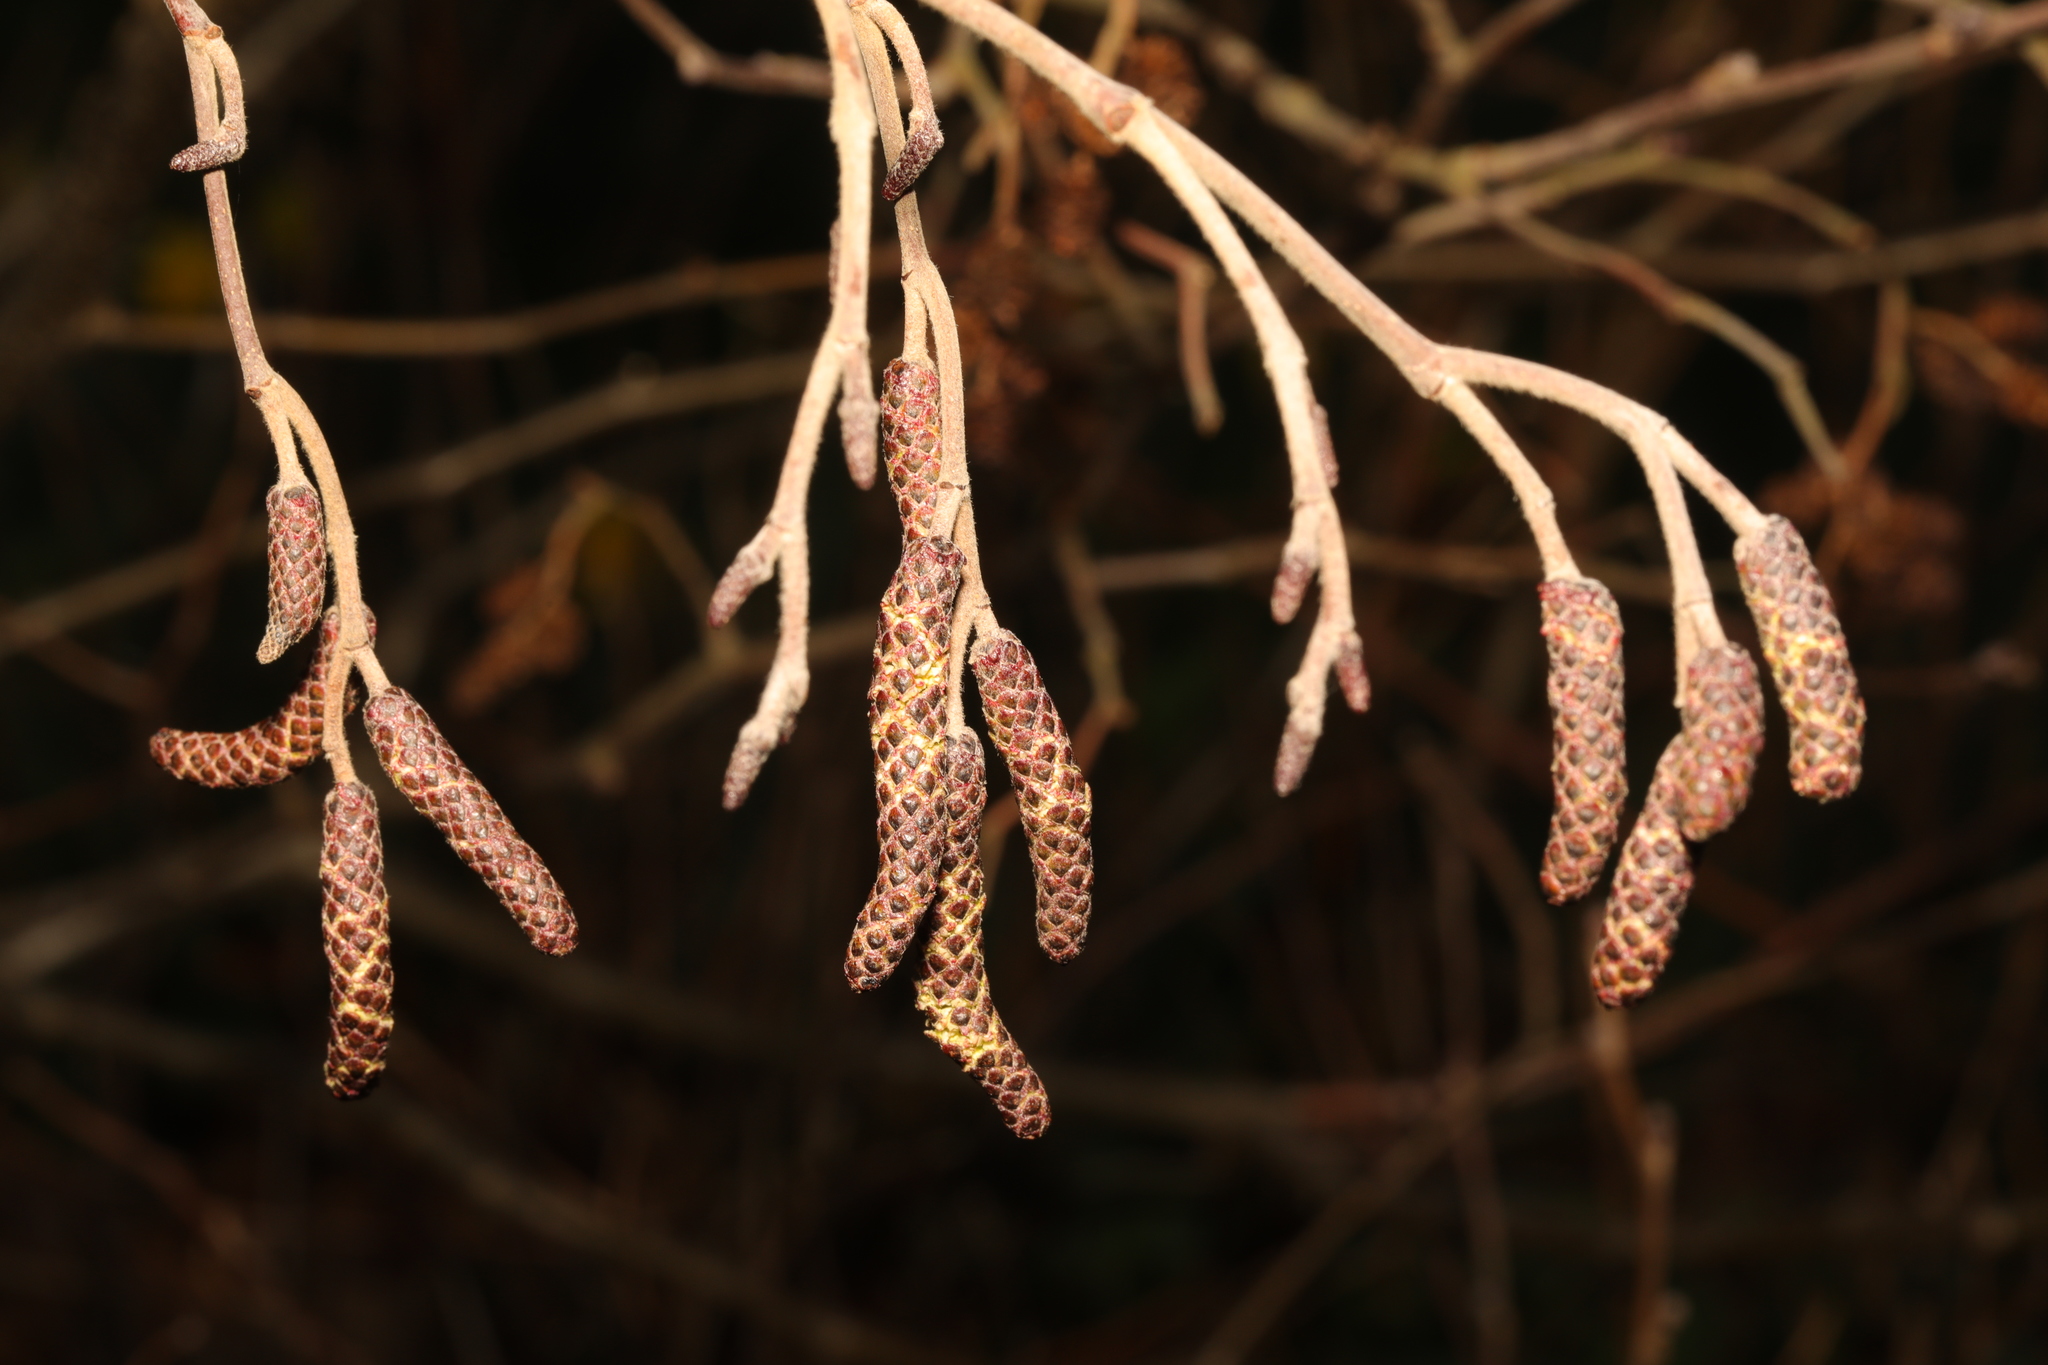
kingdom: Plantae
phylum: Tracheophyta
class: Magnoliopsida
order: Fagales
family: Betulaceae
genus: Alnus
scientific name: Alnus glutinosa
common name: Black alder
